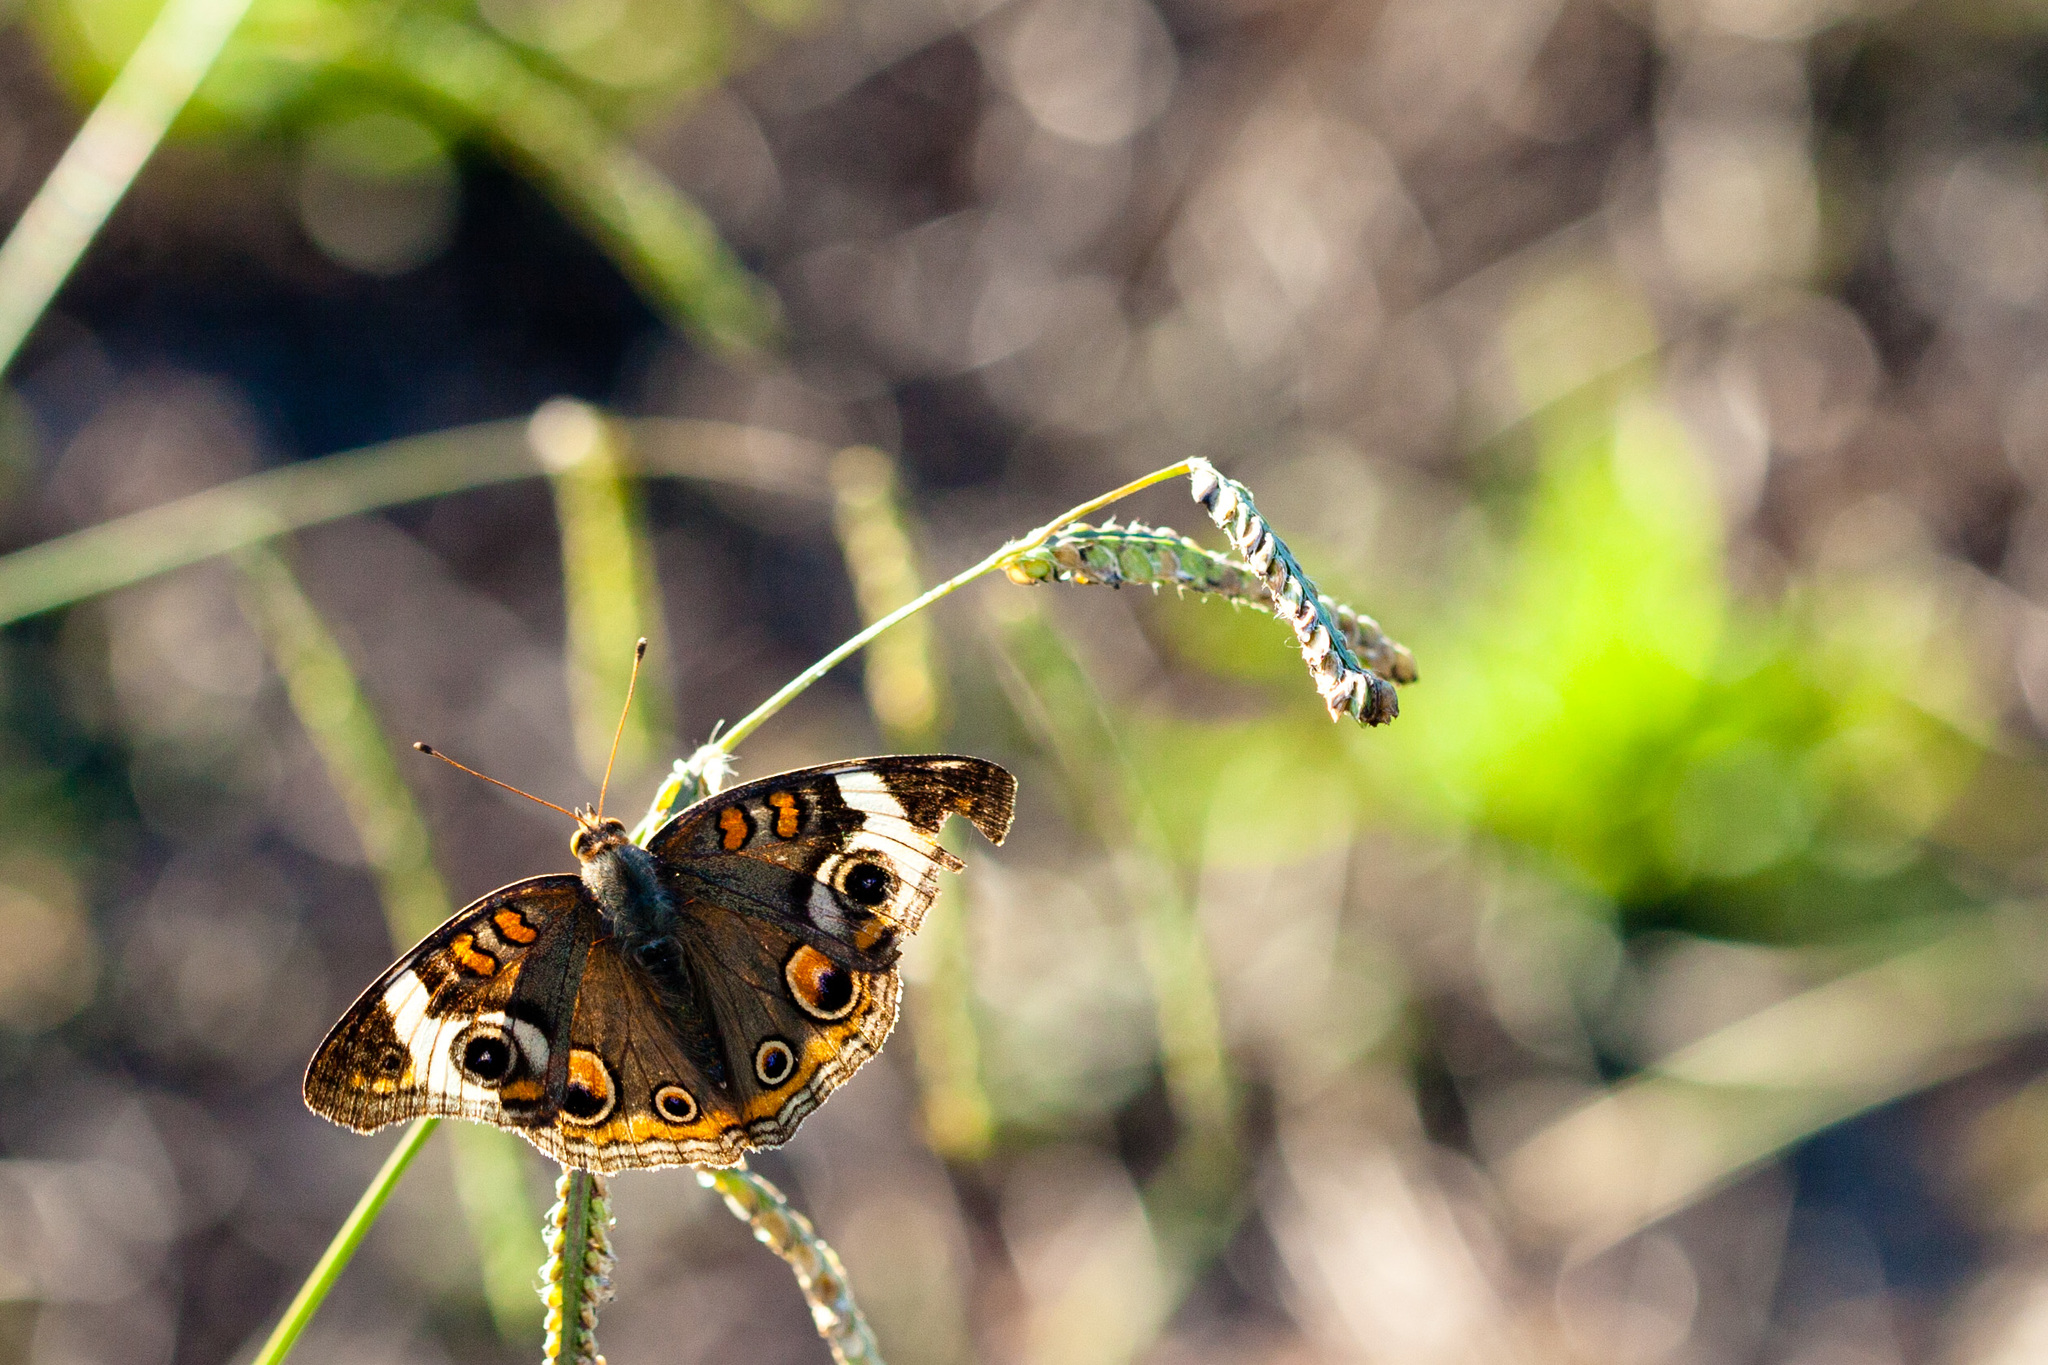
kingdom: Animalia
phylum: Arthropoda
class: Insecta
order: Lepidoptera
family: Nymphalidae
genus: Junonia
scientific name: Junonia coenia
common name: Common buckeye
